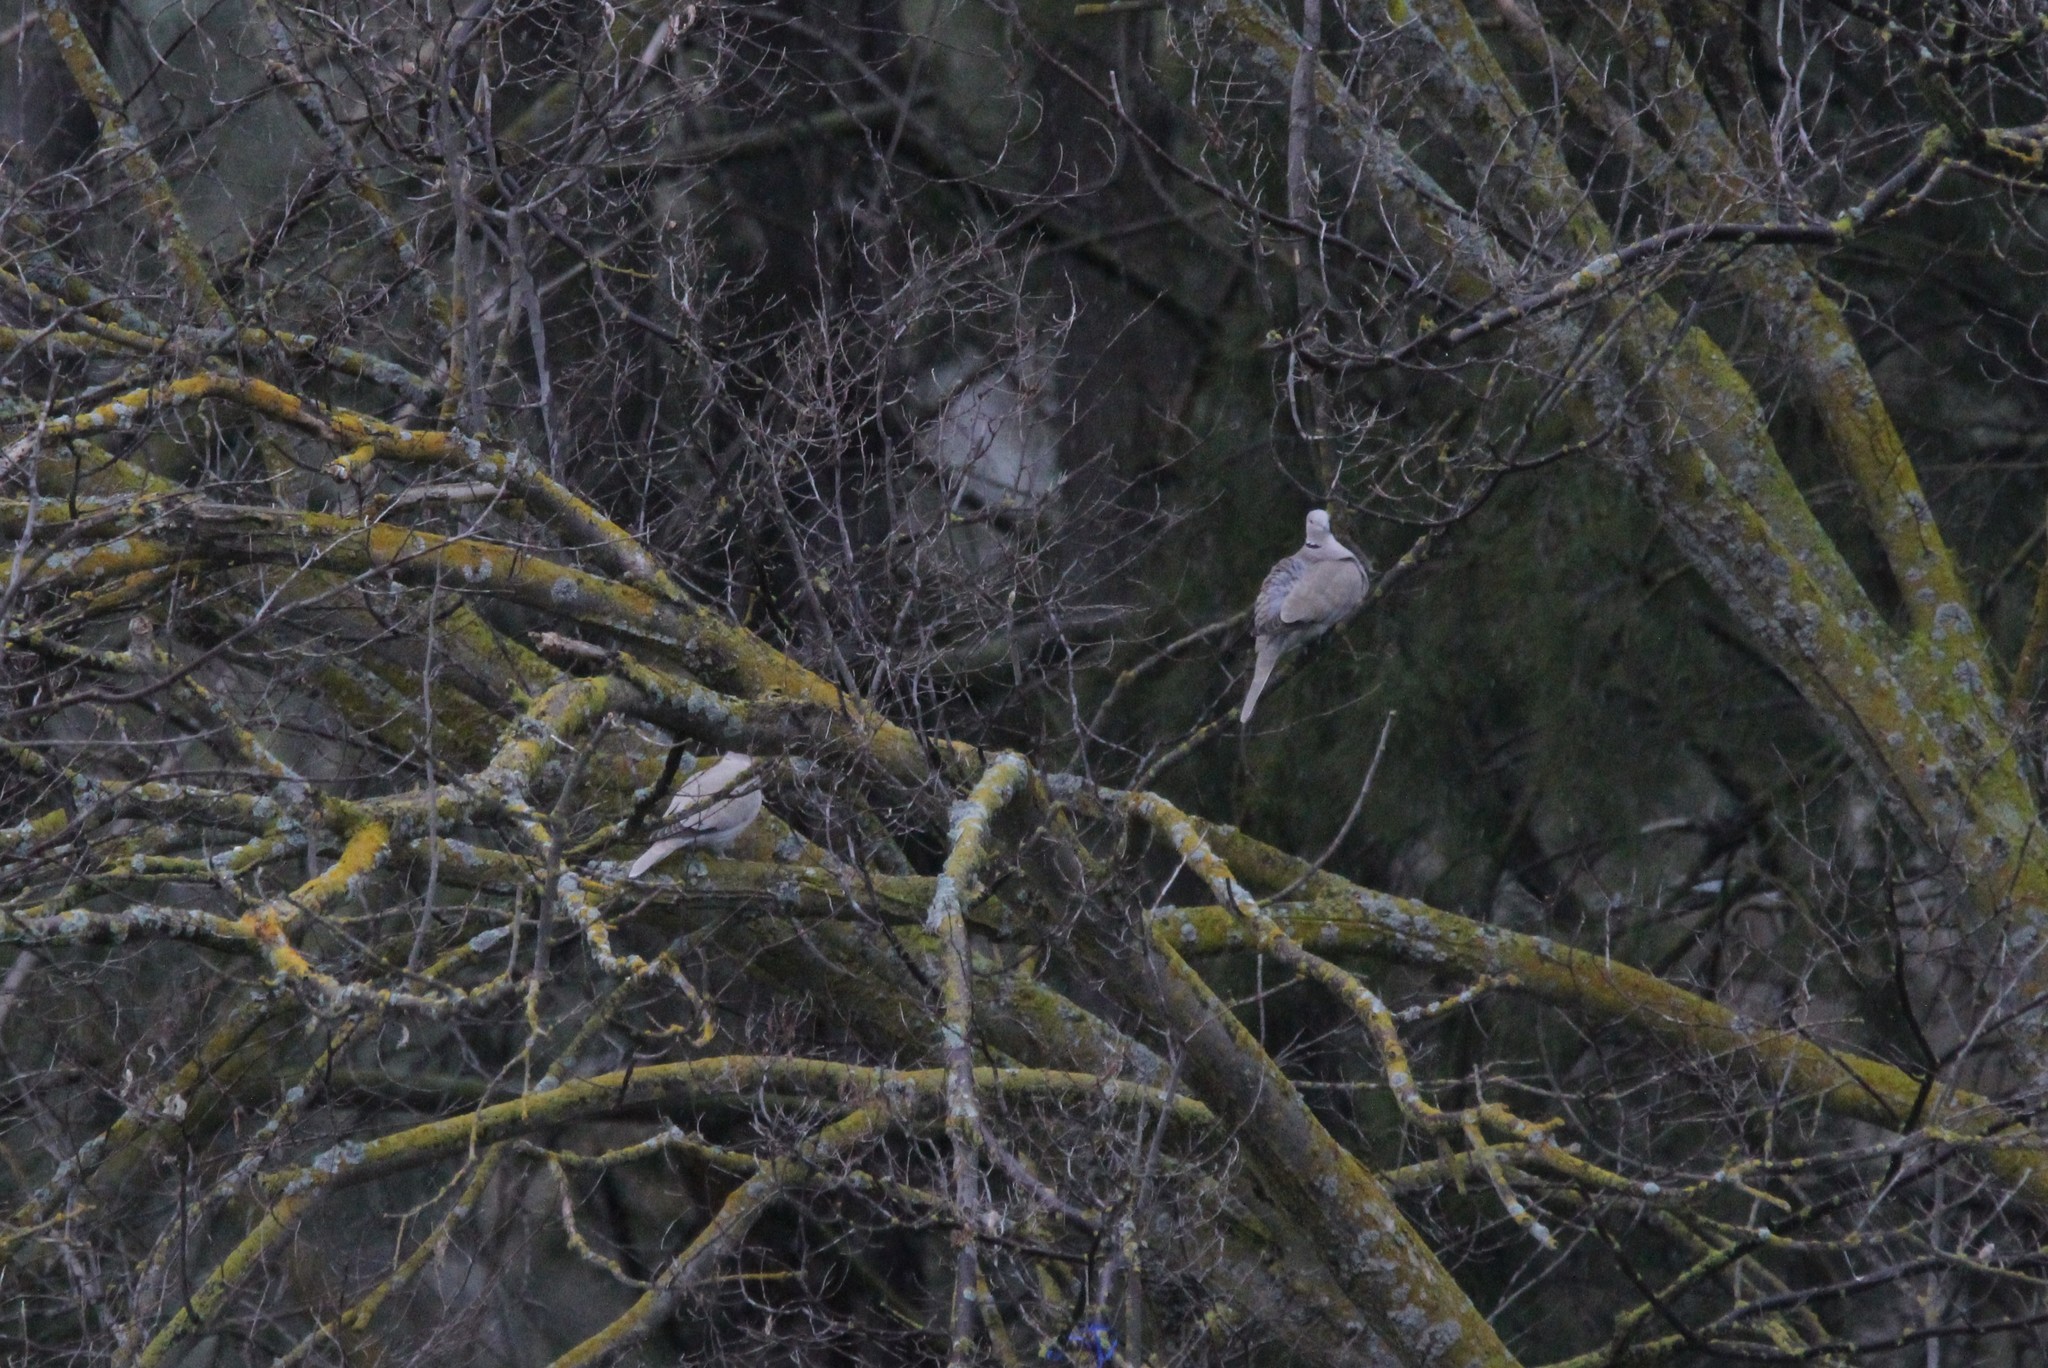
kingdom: Animalia
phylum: Chordata
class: Aves
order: Columbiformes
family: Columbidae
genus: Streptopelia
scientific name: Streptopelia decaocto
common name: Eurasian collared dove
